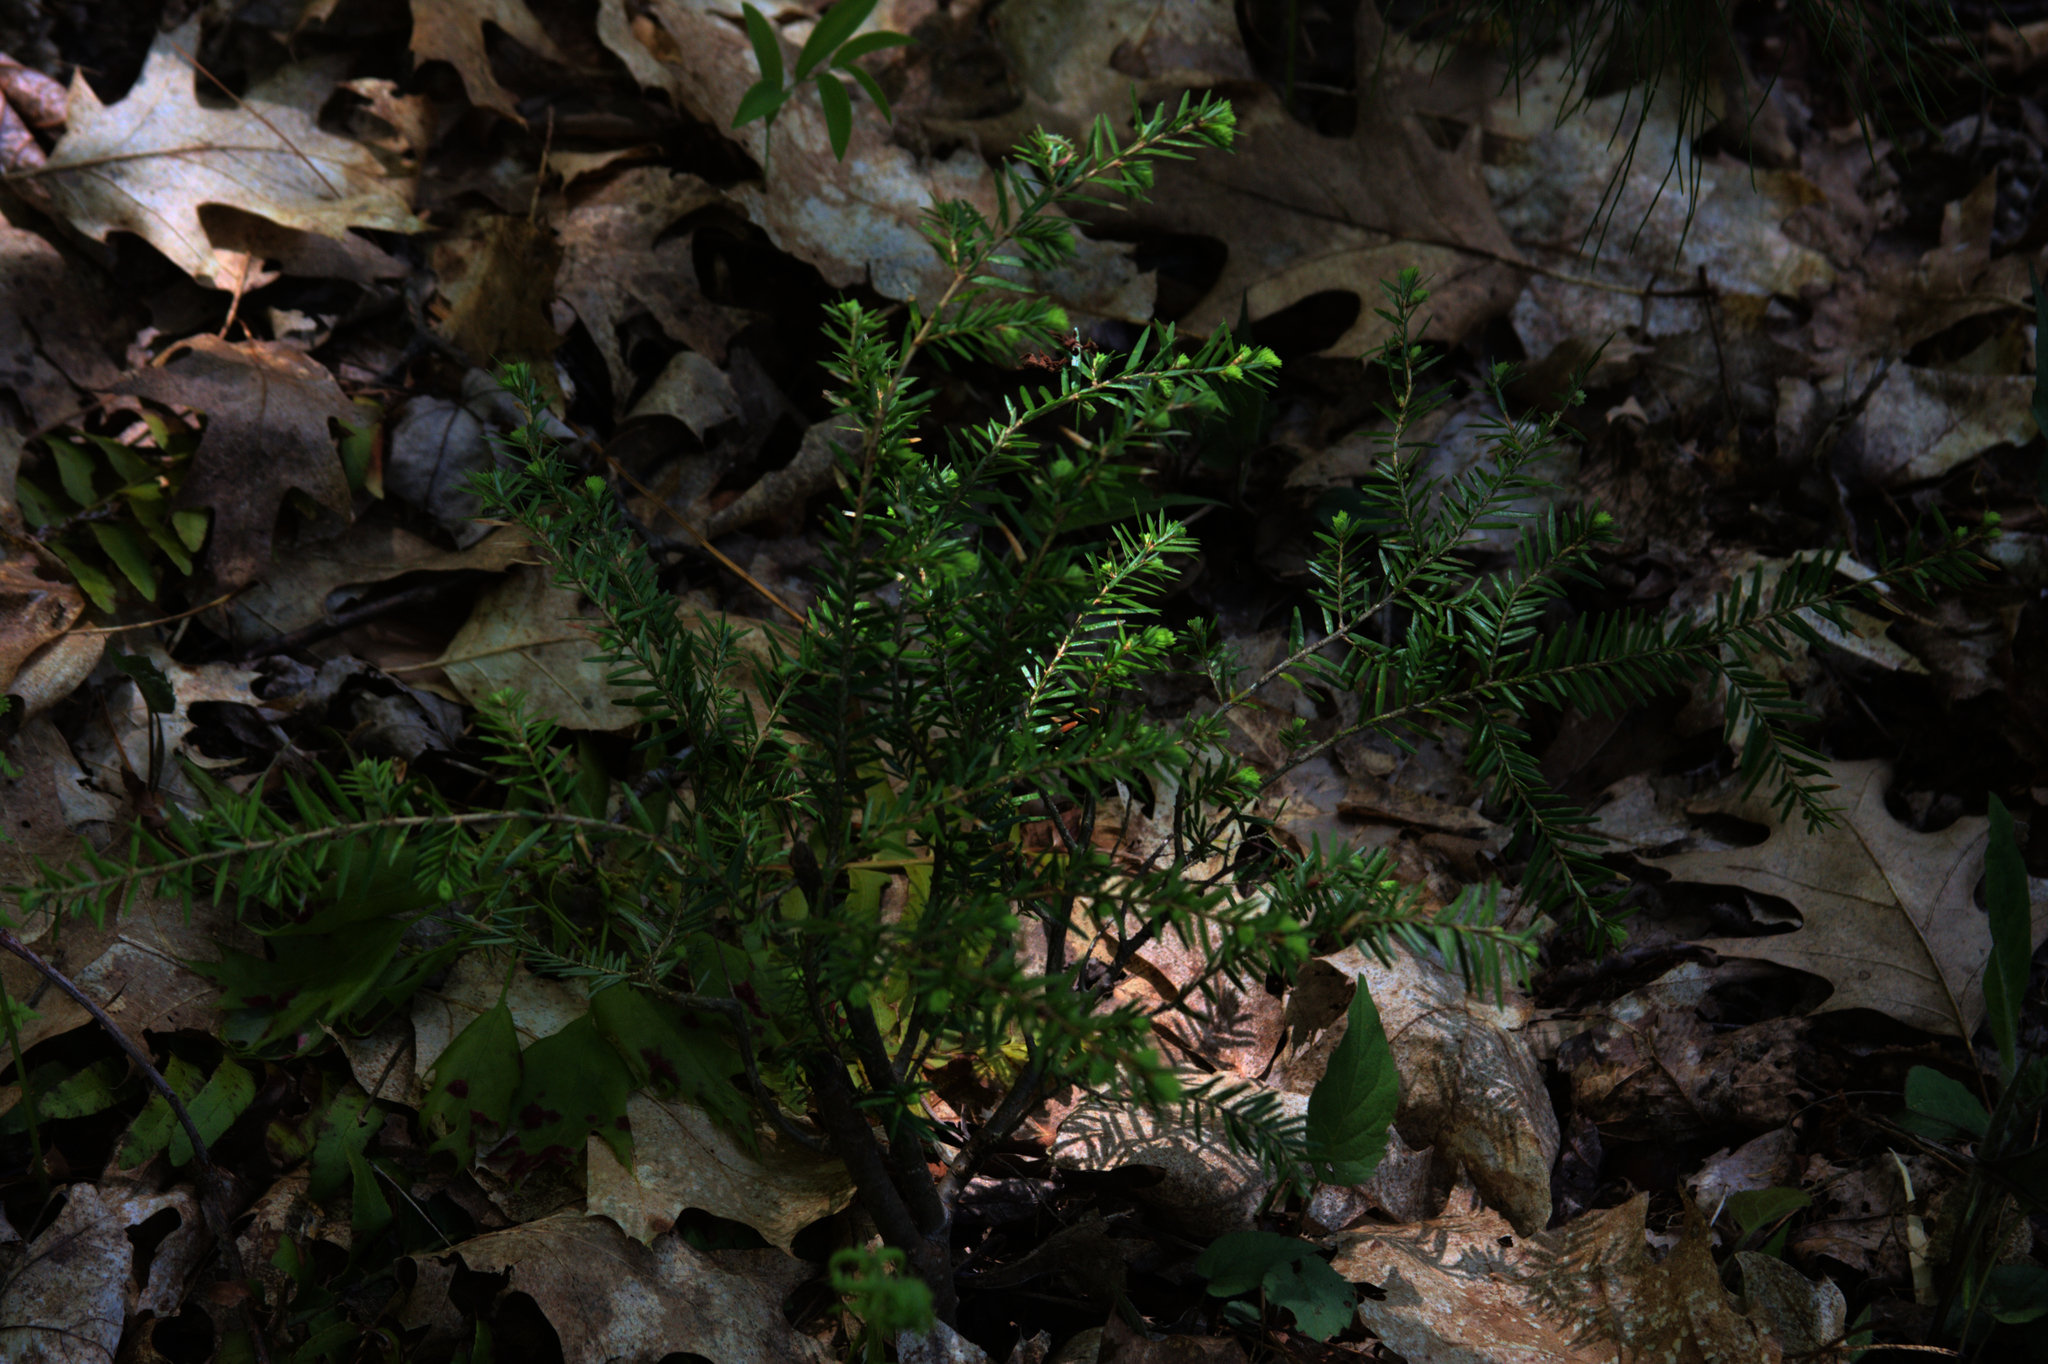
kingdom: Plantae
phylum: Tracheophyta
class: Pinopsida
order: Pinales
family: Pinaceae
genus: Tsuga
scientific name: Tsuga canadensis
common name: Eastern hemlock
